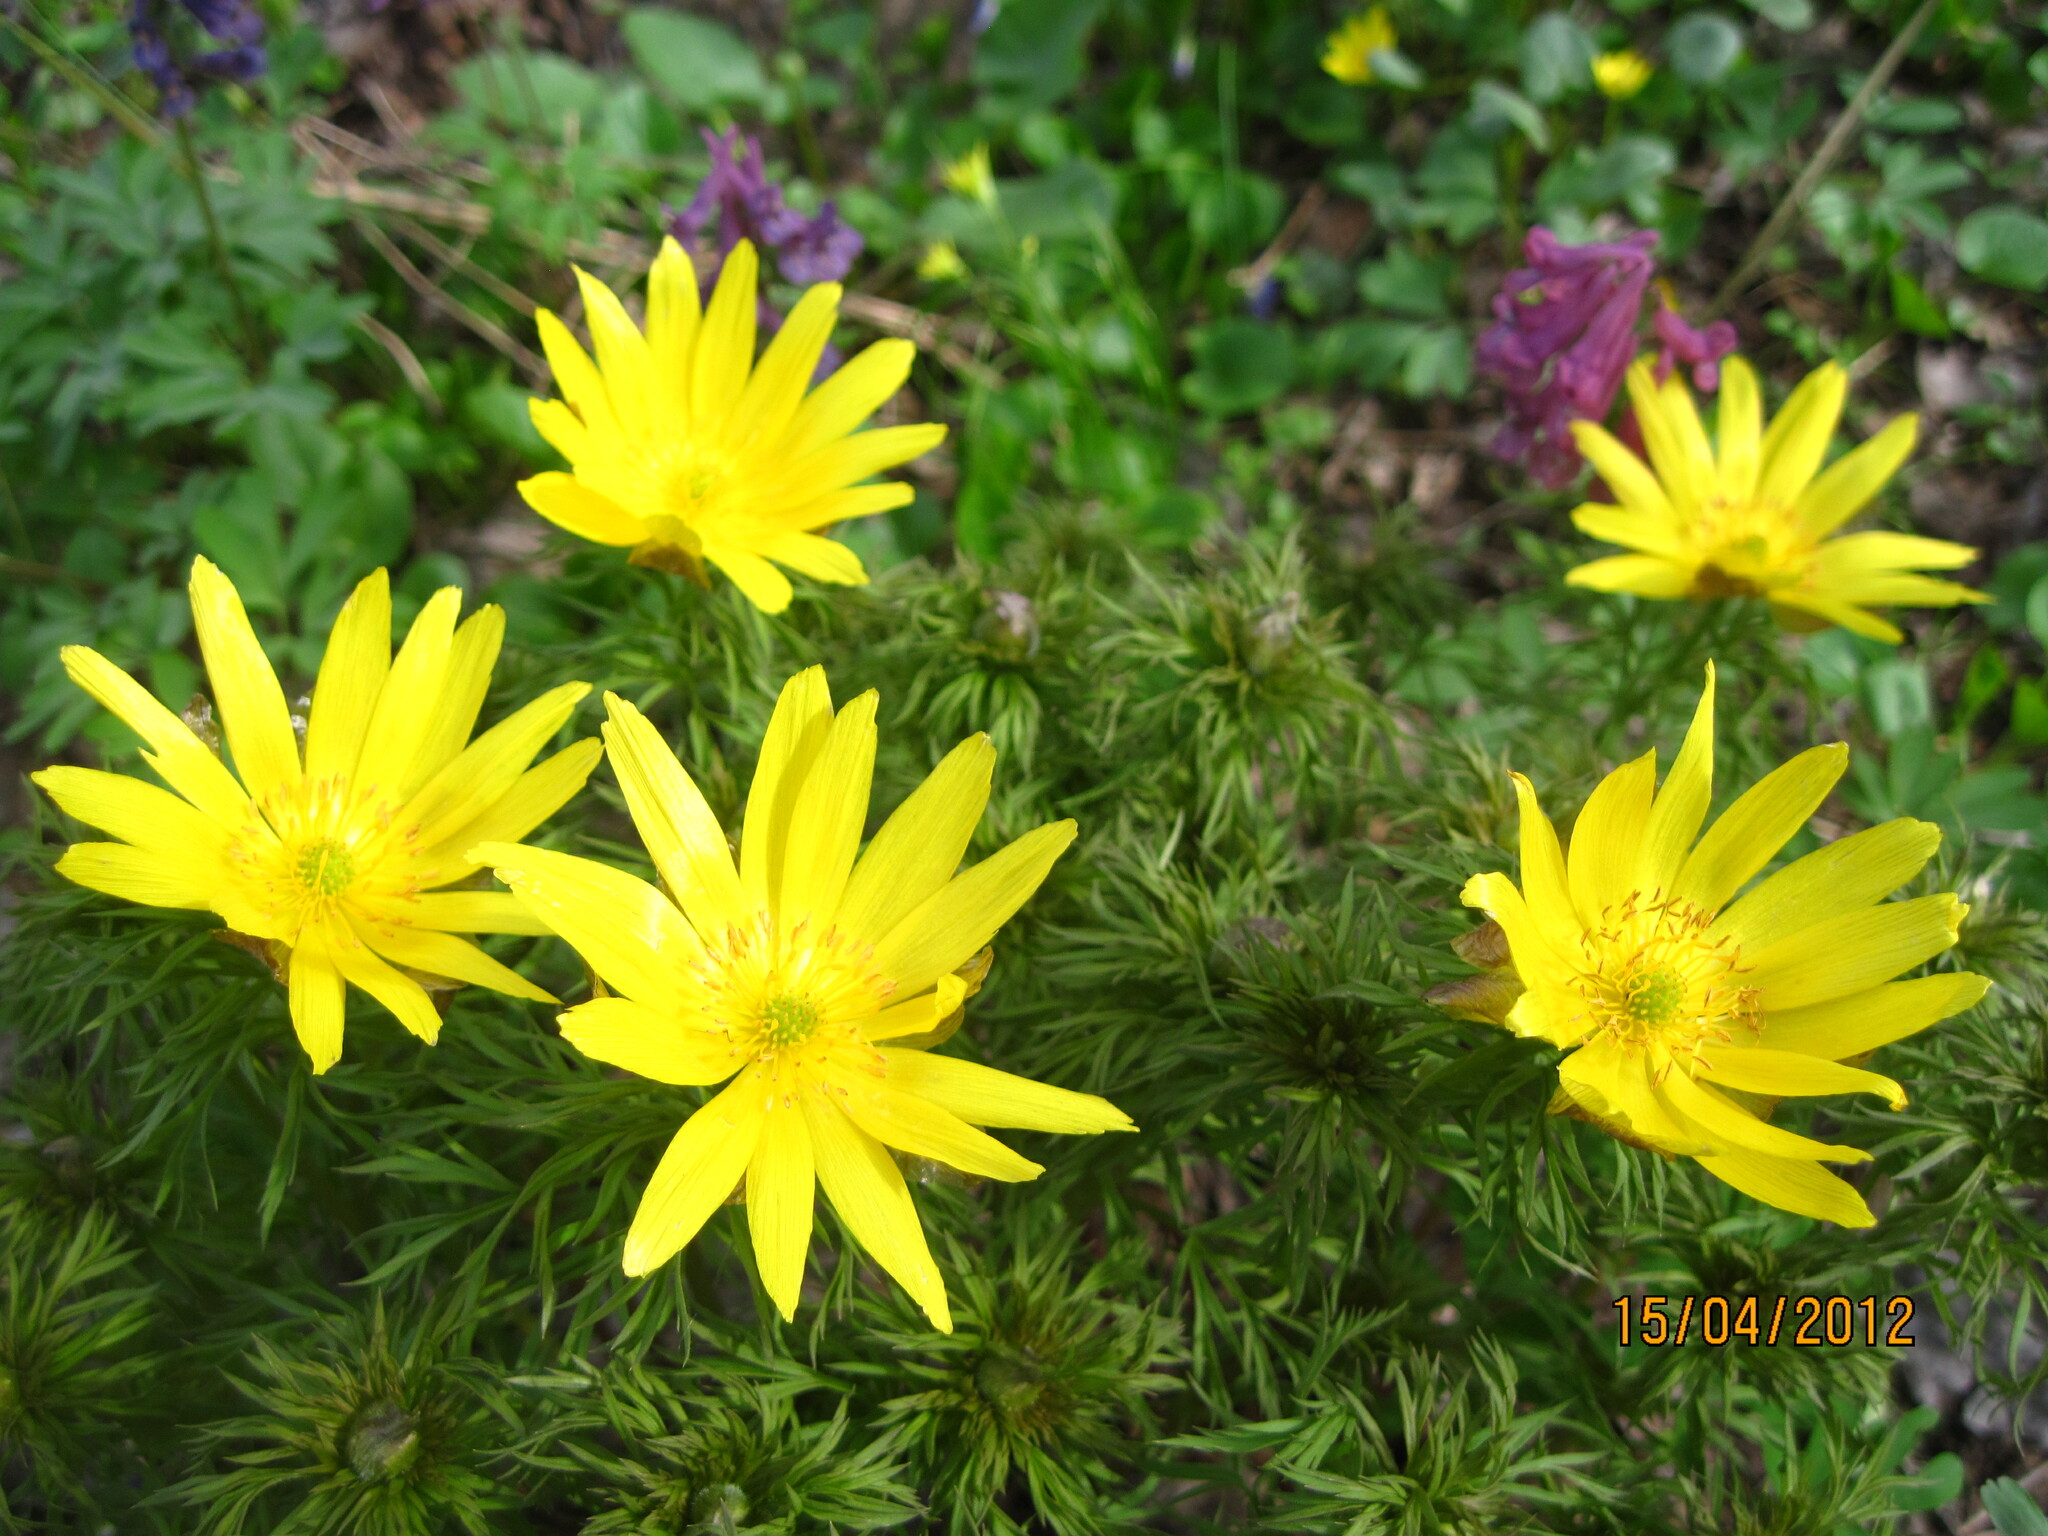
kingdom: Plantae
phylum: Tracheophyta
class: Magnoliopsida
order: Ranunculales
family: Ranunculaceae
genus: Adonis
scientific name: Adonis volgensis
